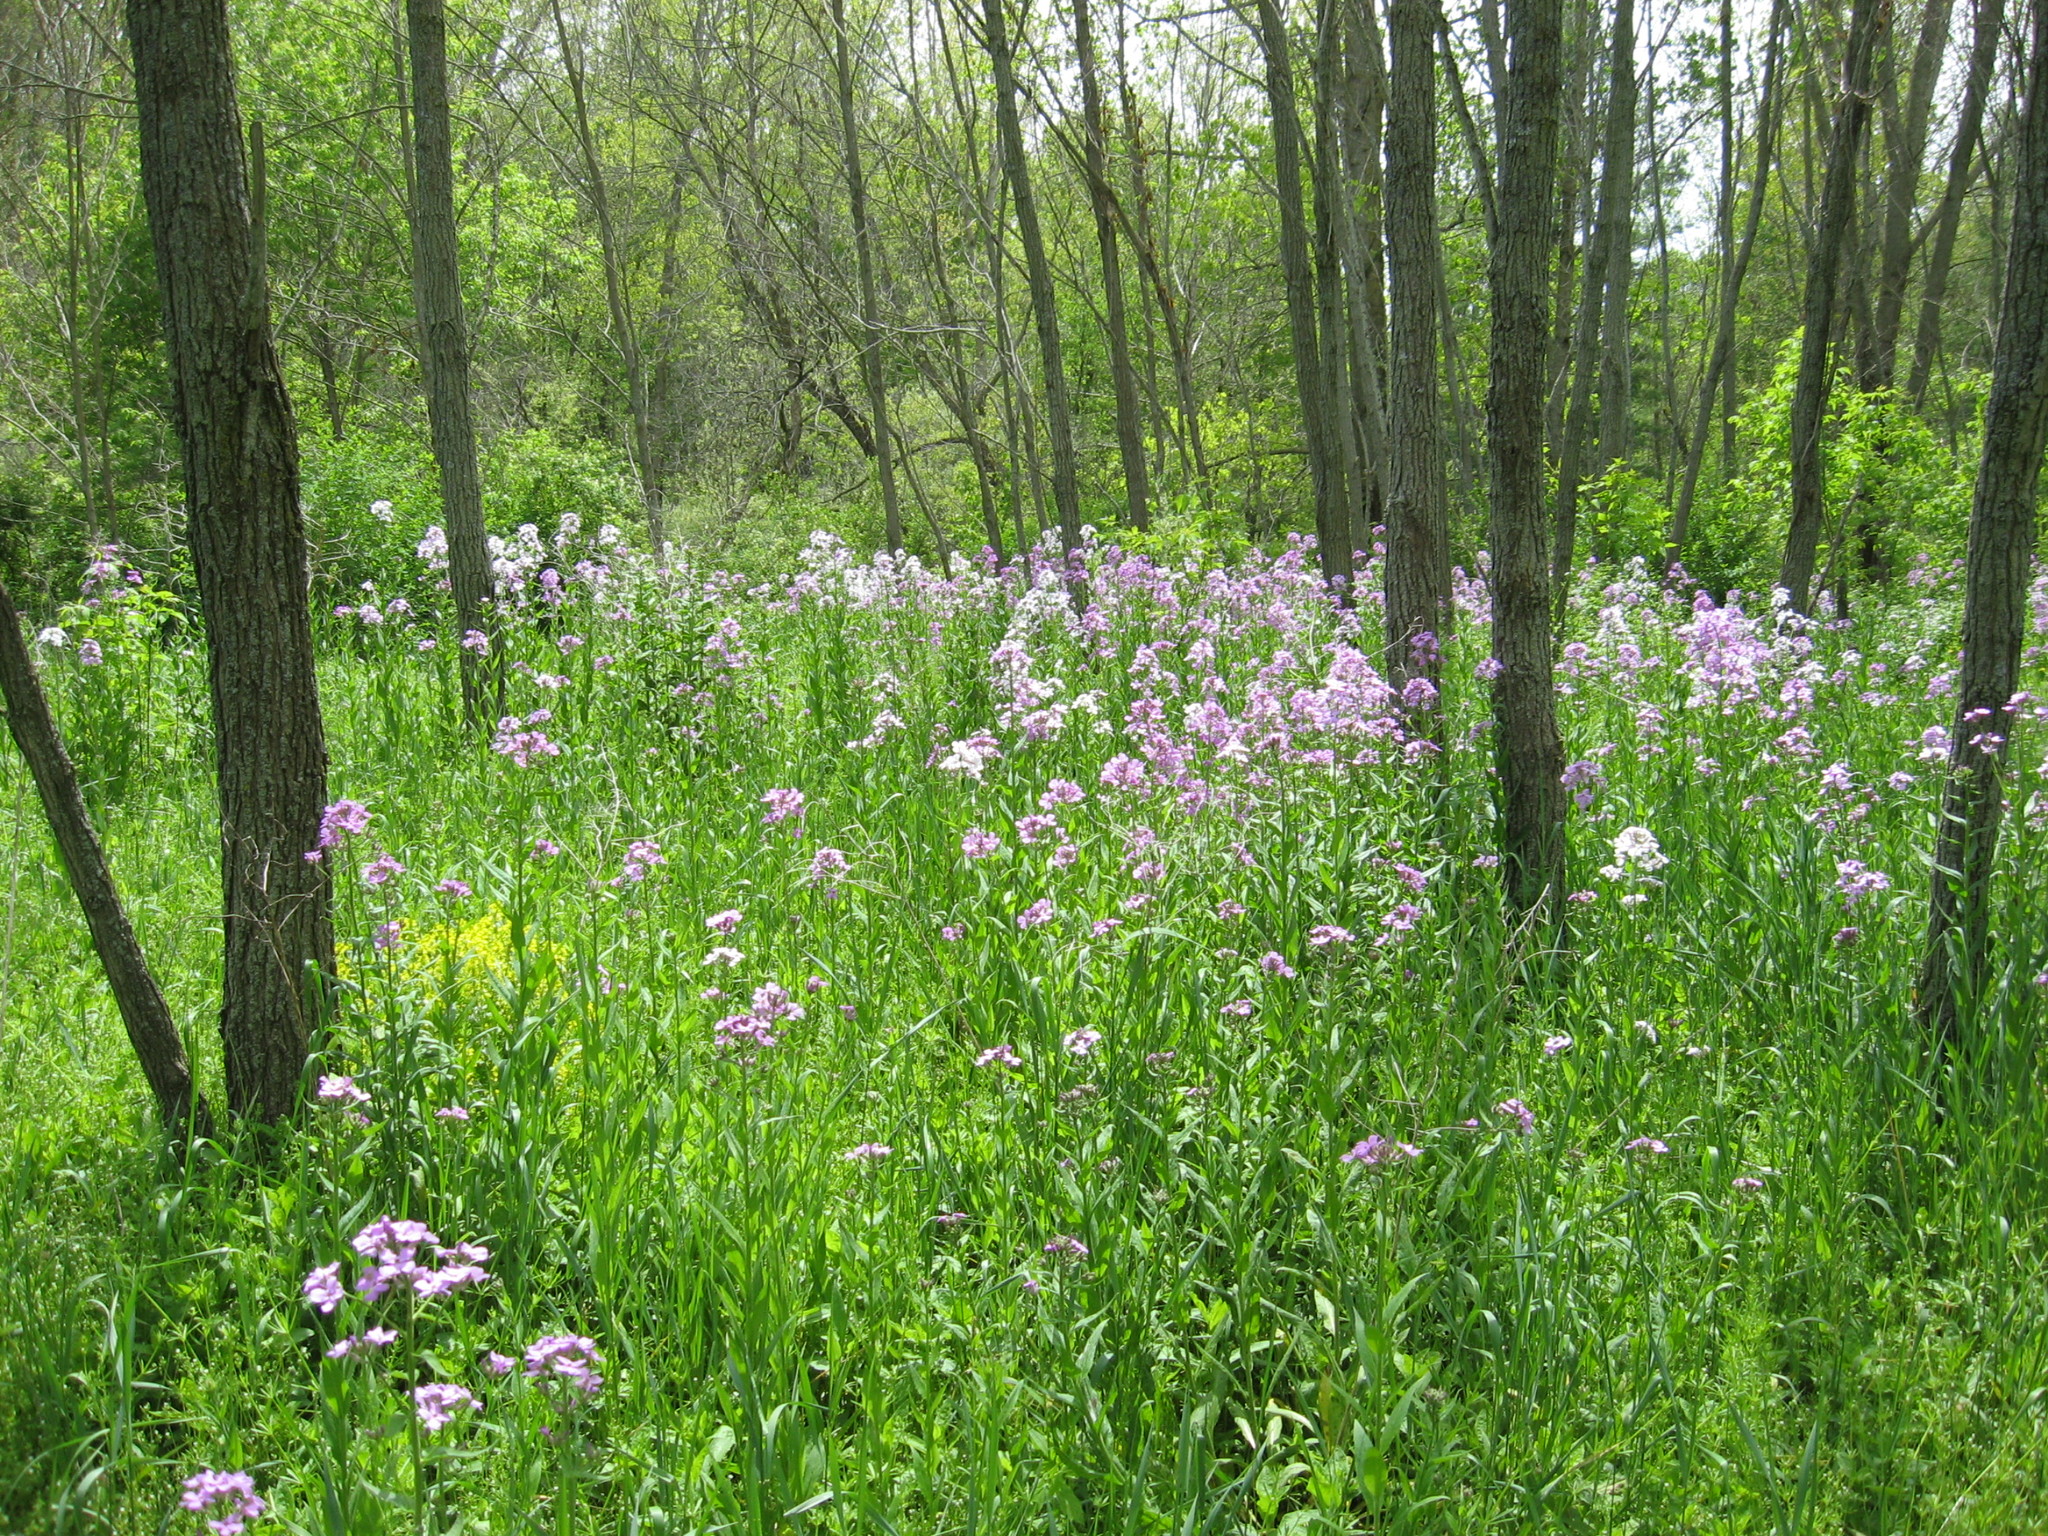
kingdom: Plantae
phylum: Tracheophyta
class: Magnoliopsida
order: Brassicales
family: Brassicaceae
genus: Hesperis
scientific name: Hesperis matronalis
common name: Dame's-violet
